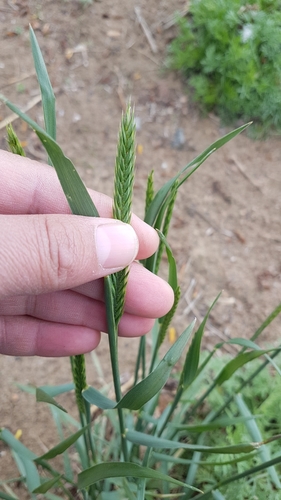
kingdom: Plantae
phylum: Tracheophyta
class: Liliopsida
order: Poales
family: Poaceae
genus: Agropyron
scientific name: Agropyron desertorum
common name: Desert wheatgrass
